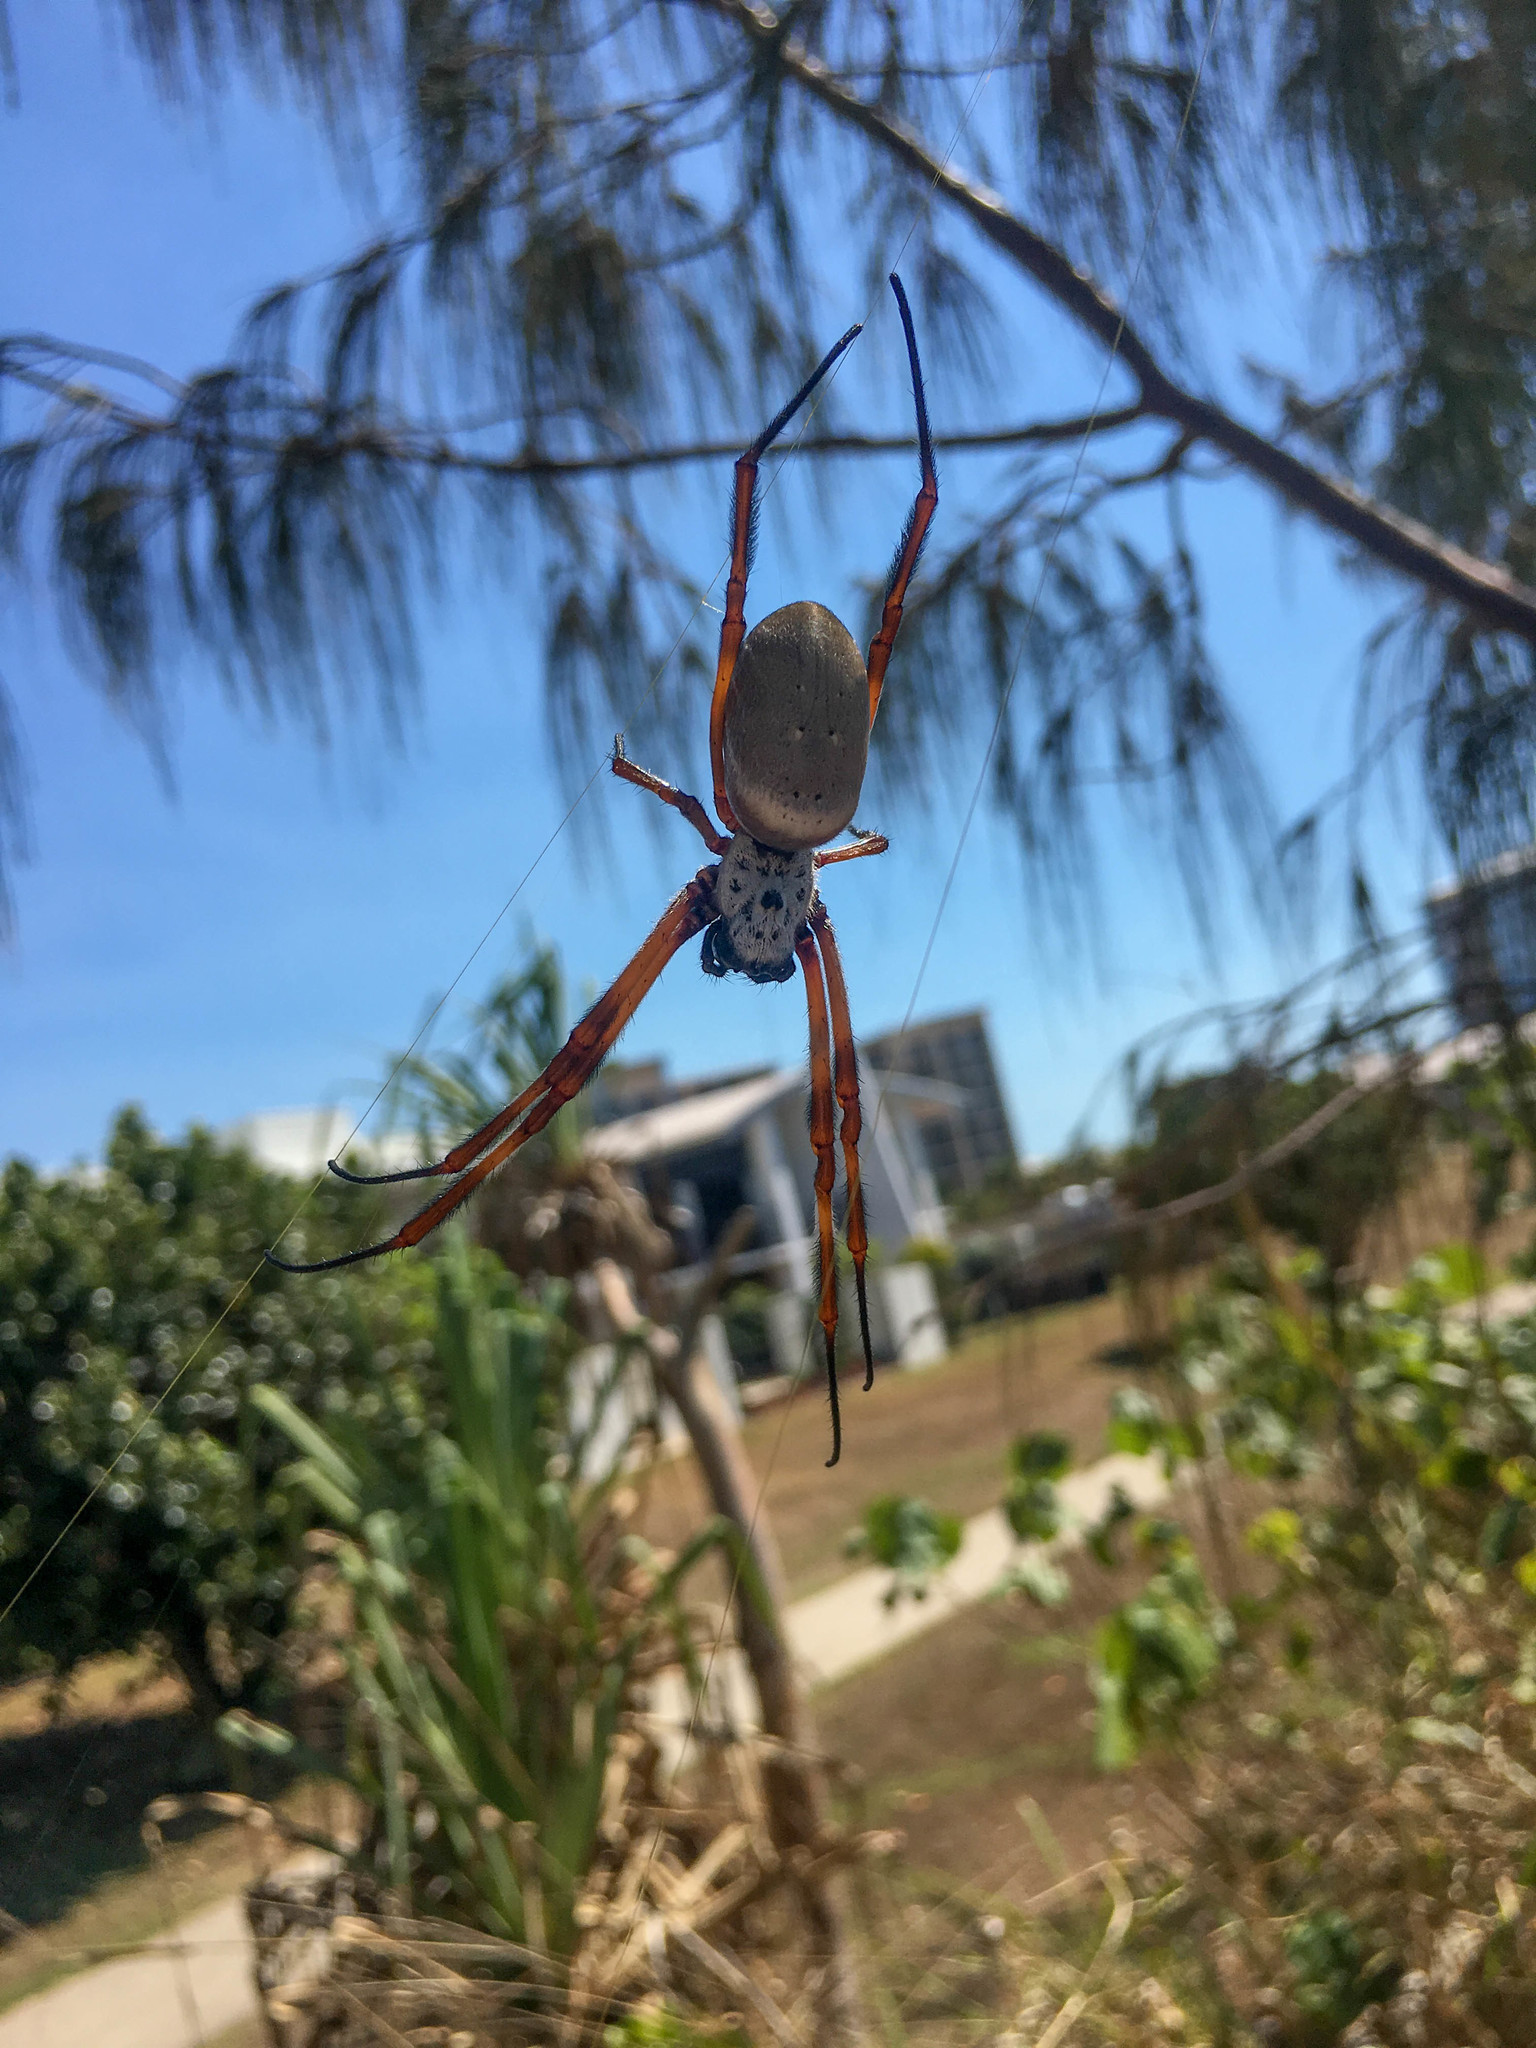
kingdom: Animalia
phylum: Arthropoda
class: Arachnida
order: Araneae
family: Araneidae
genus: Trichonephila
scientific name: Trichonephila edulis
